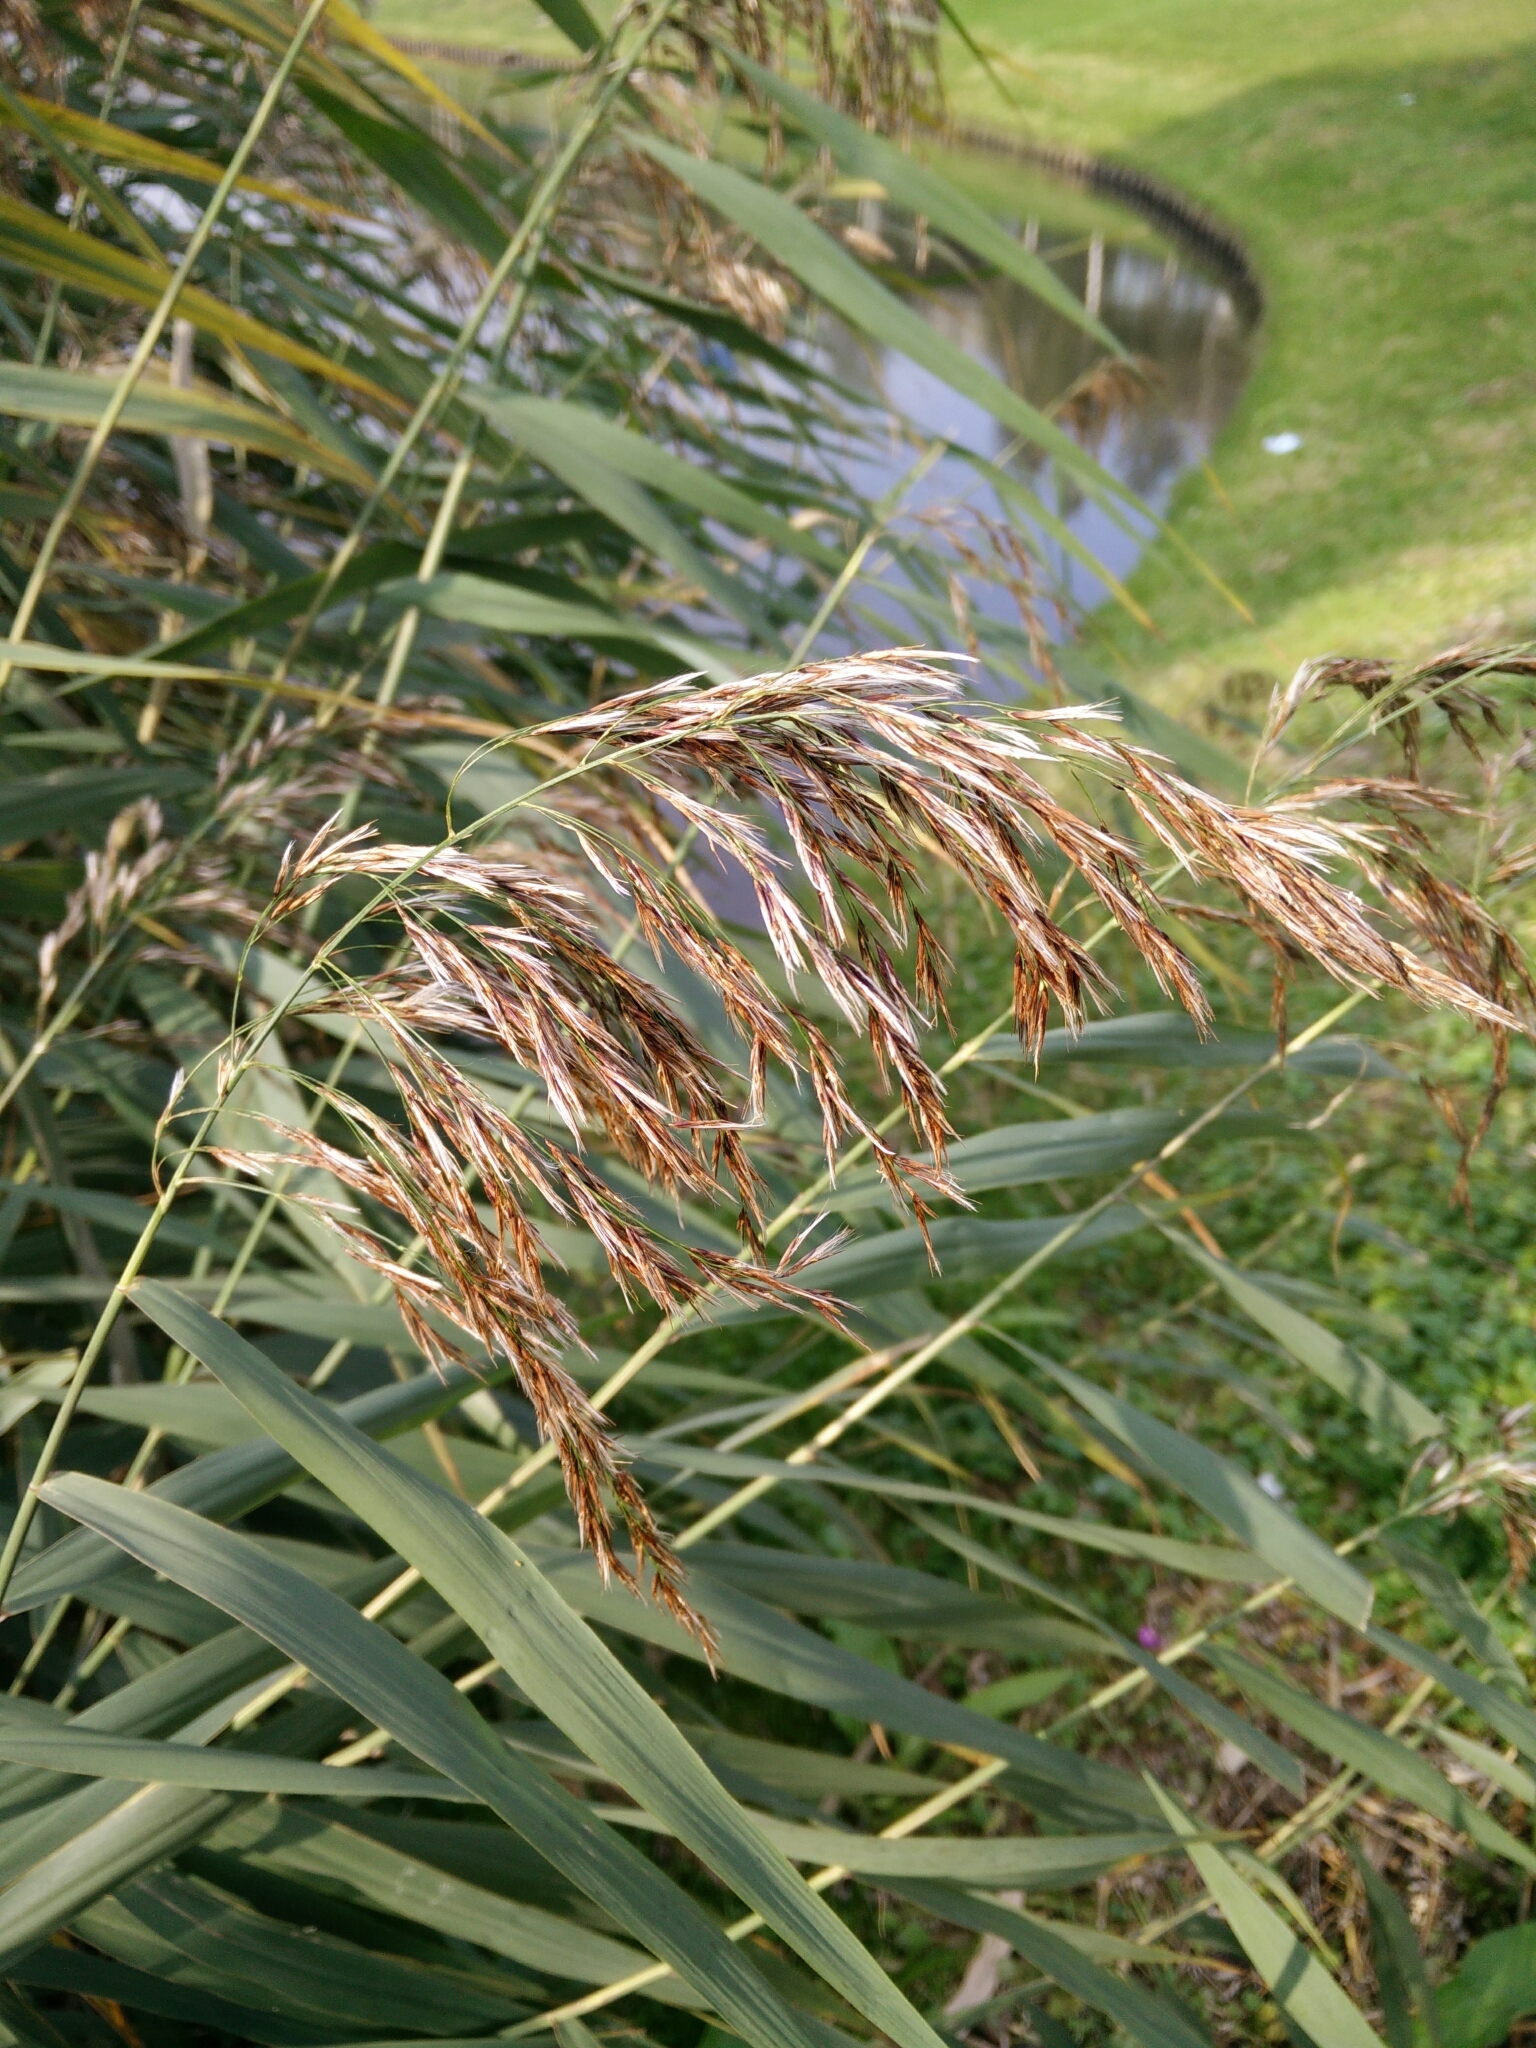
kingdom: Plantae
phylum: Tracheophyta
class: Liliopsida
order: Poales
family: Poaceae
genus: Phragmites
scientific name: Phragmites australis
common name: Common reed
